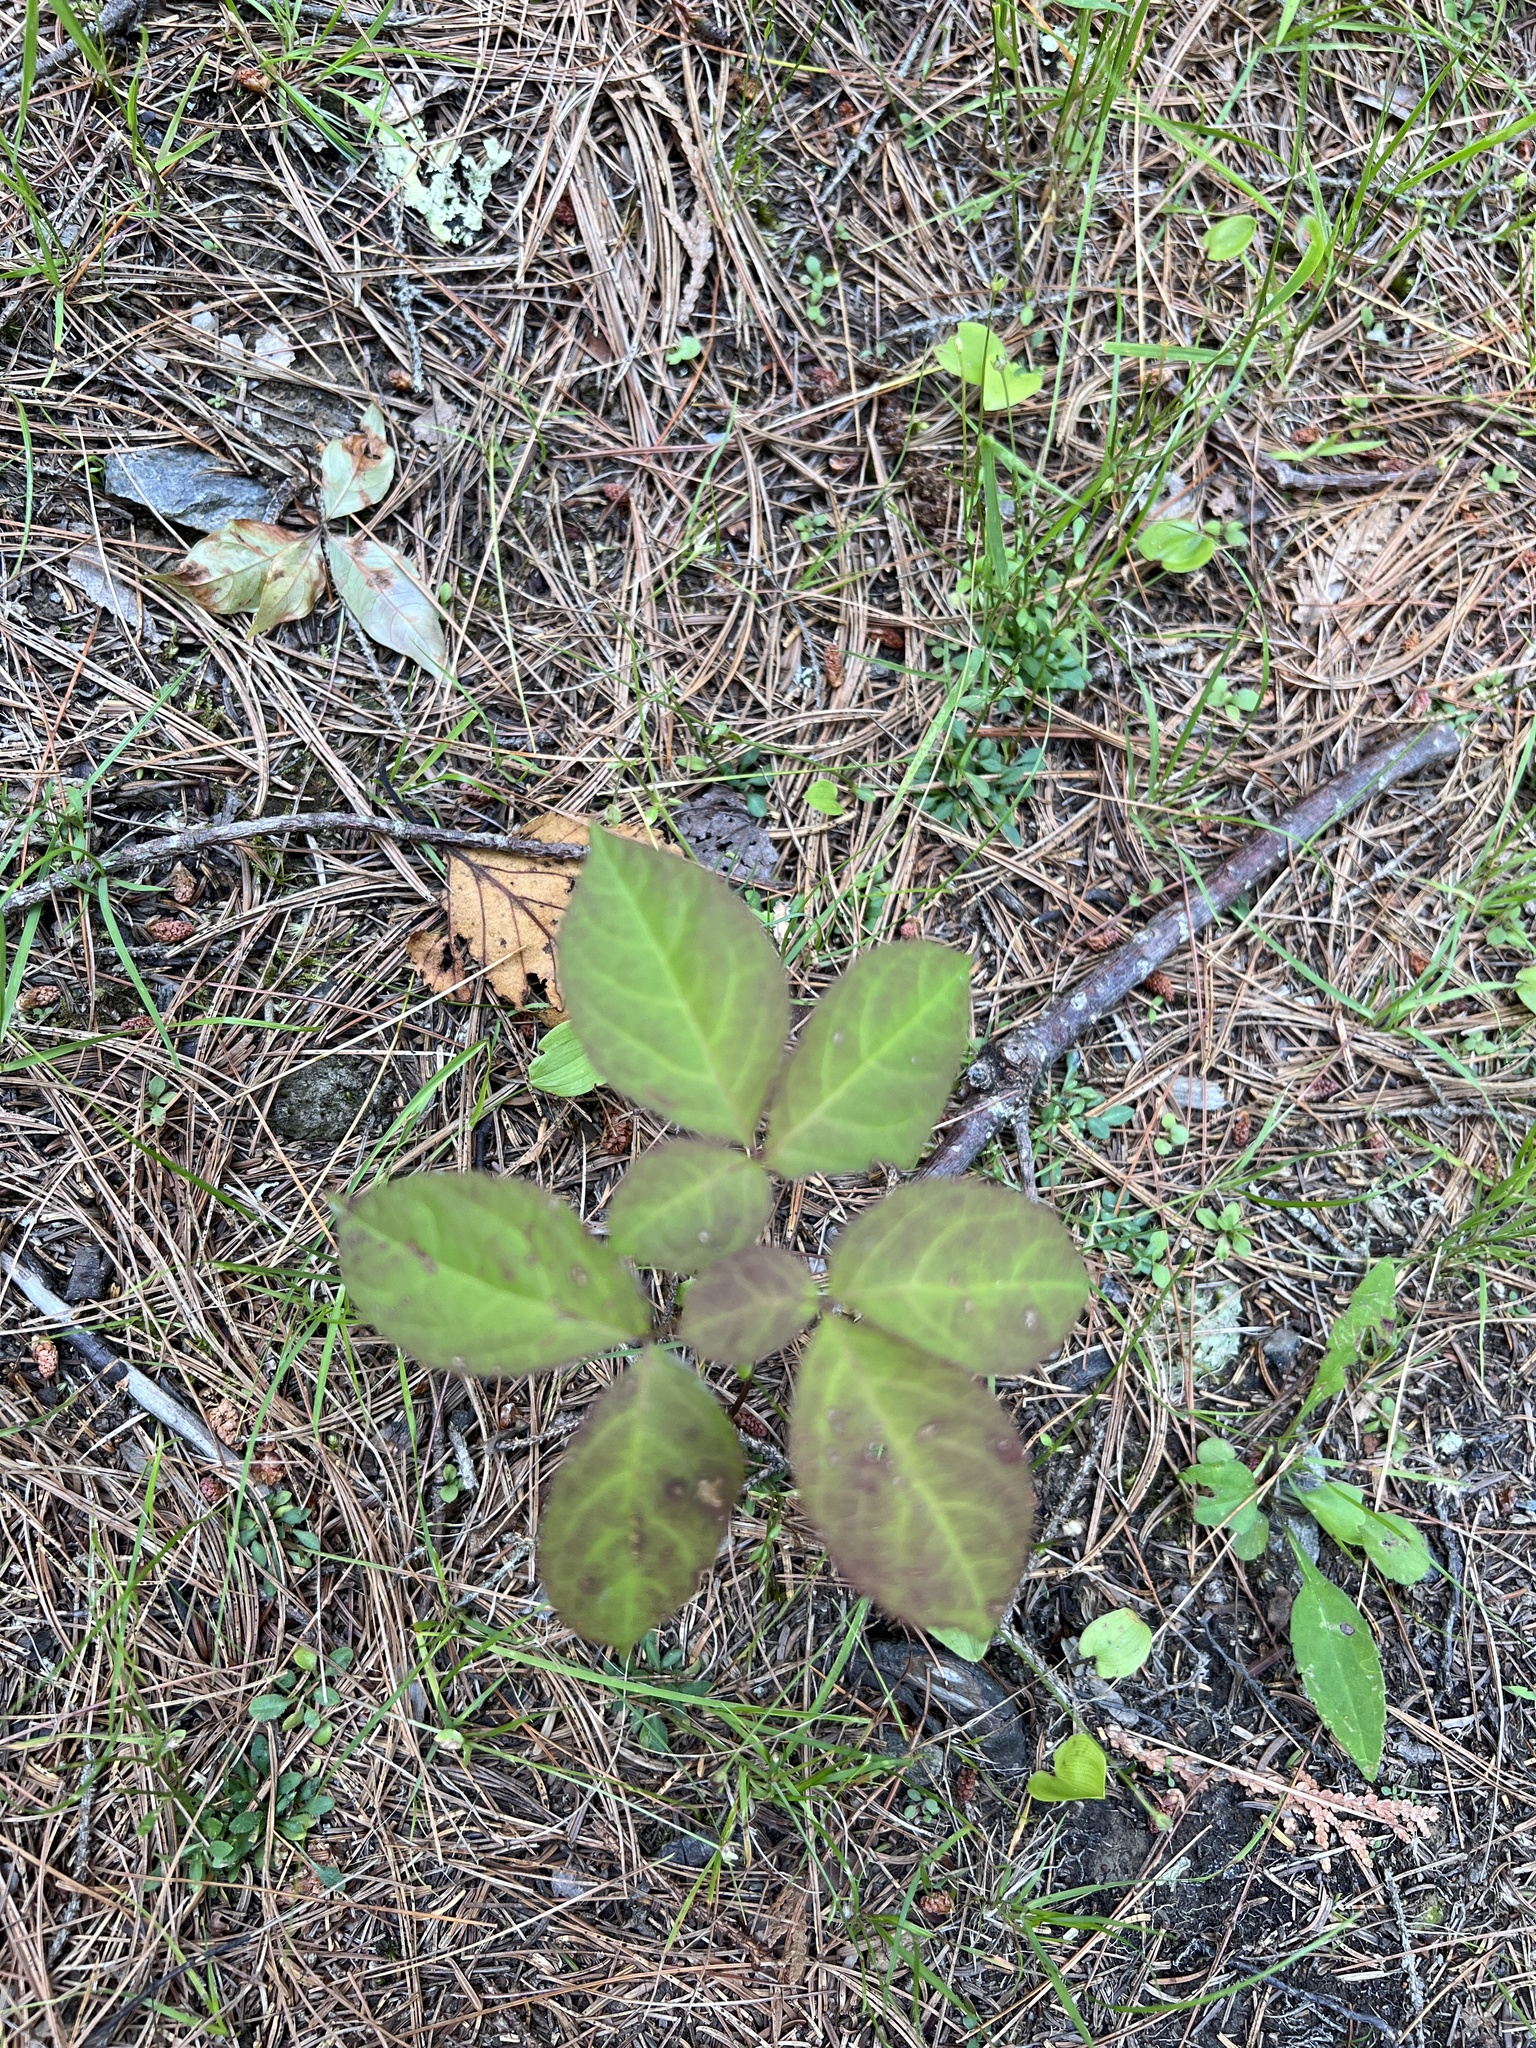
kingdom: Plantae
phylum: Tracheophyta
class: Magnoliopsida
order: Apiales
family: Araliaceae
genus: Aralia
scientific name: Aralia nudicaulis
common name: Wild sarsaparilla
